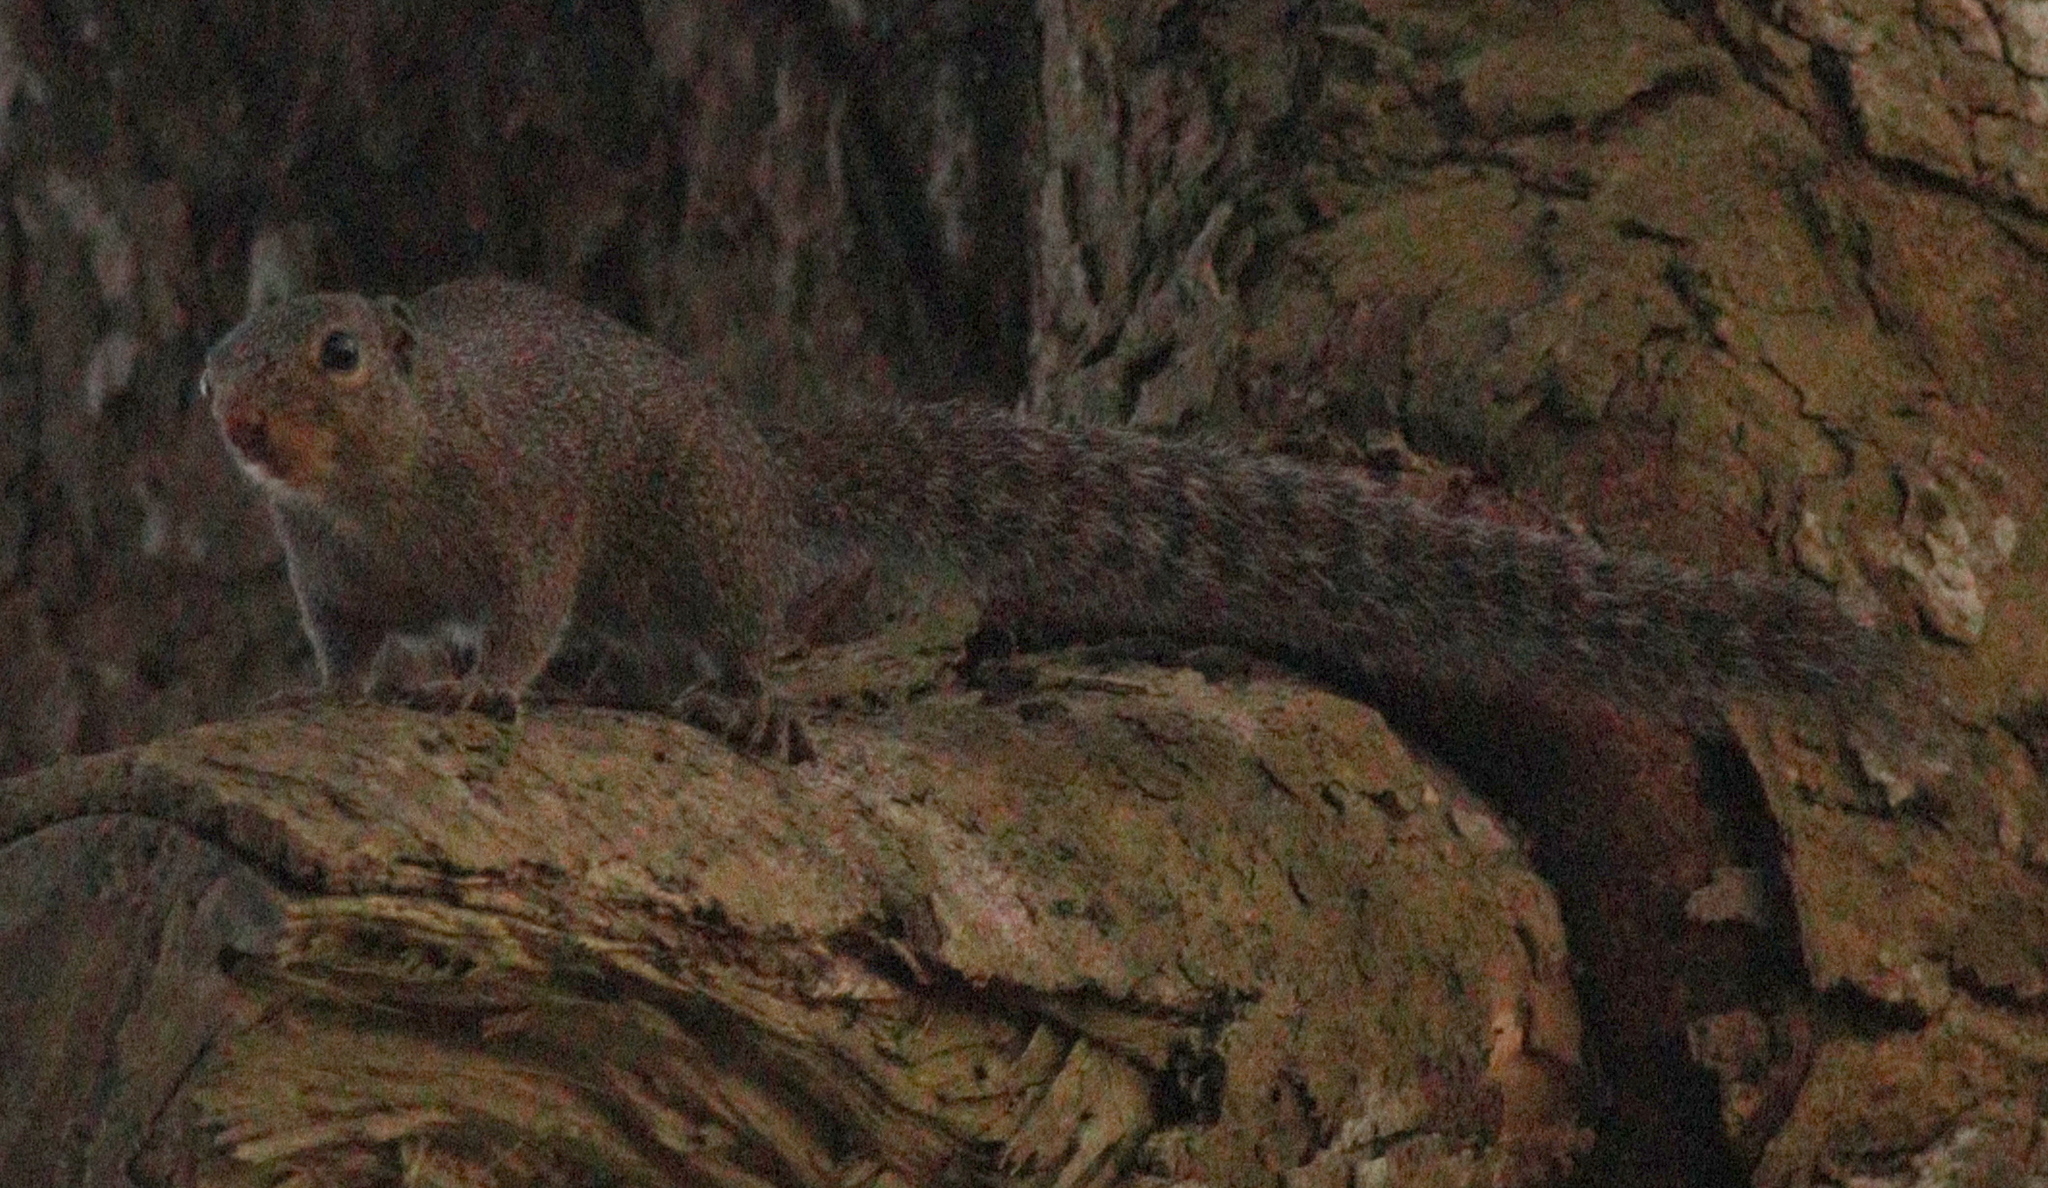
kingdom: Animalia
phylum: Chordata
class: Mammalia
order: Rodentia
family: Sciuridae
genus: Heliosciurus
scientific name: Heliosciurus punctatus
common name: Small sun squirrel
